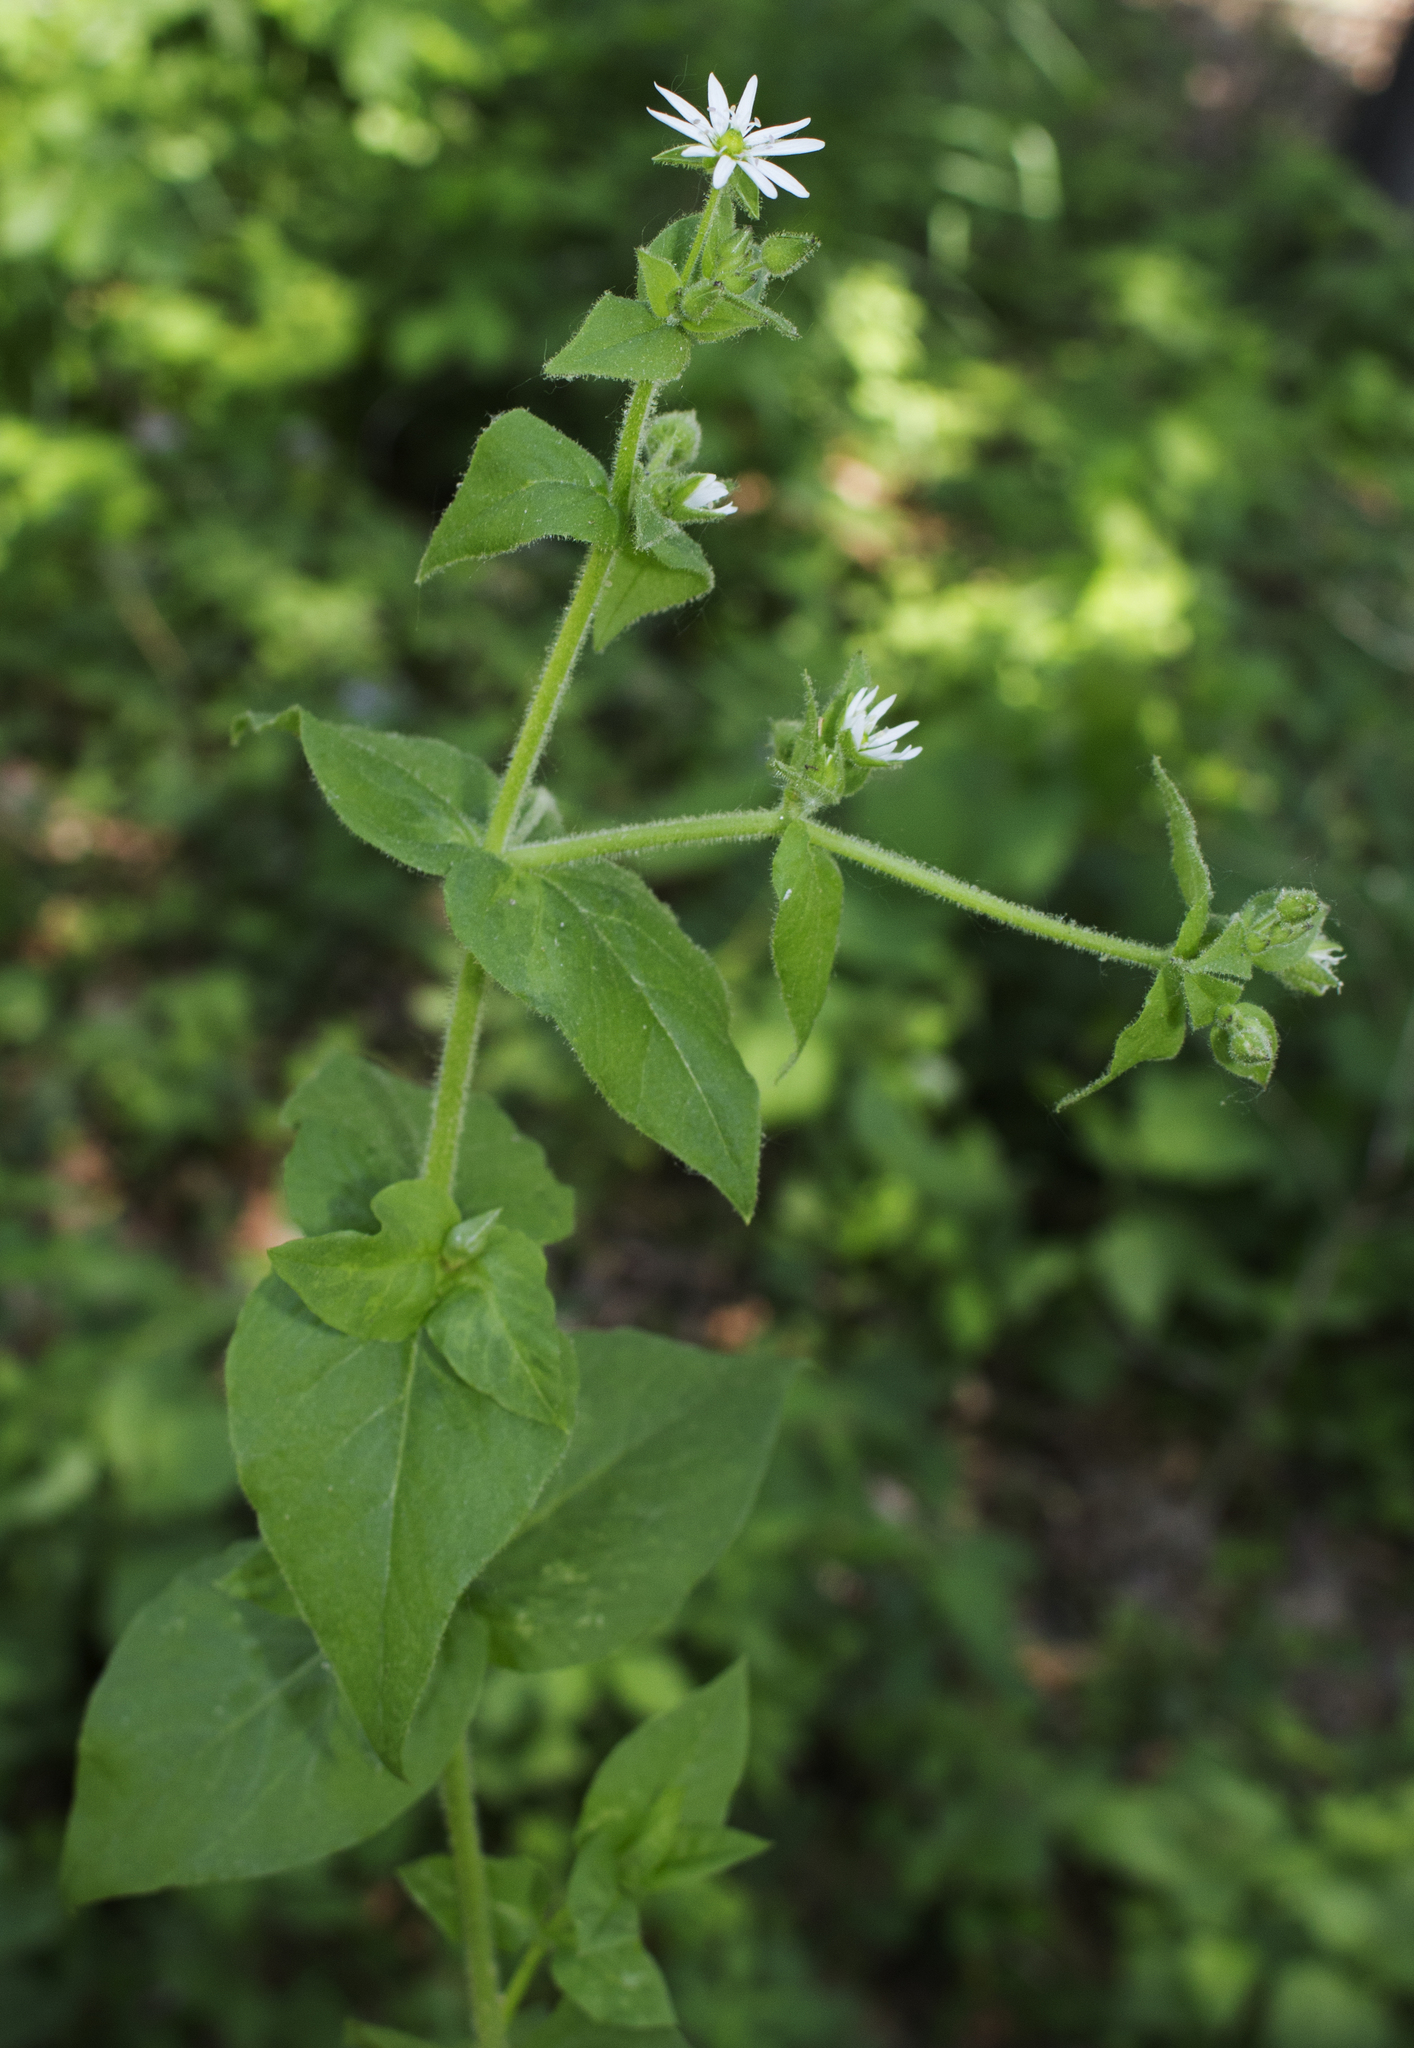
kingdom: Plantae
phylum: Tracheophyta
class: Magnoliopsida
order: Caryophyllales
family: Caryophyllaceae
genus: Stellaria
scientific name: Stellaria aquatica
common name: Water chickweed
